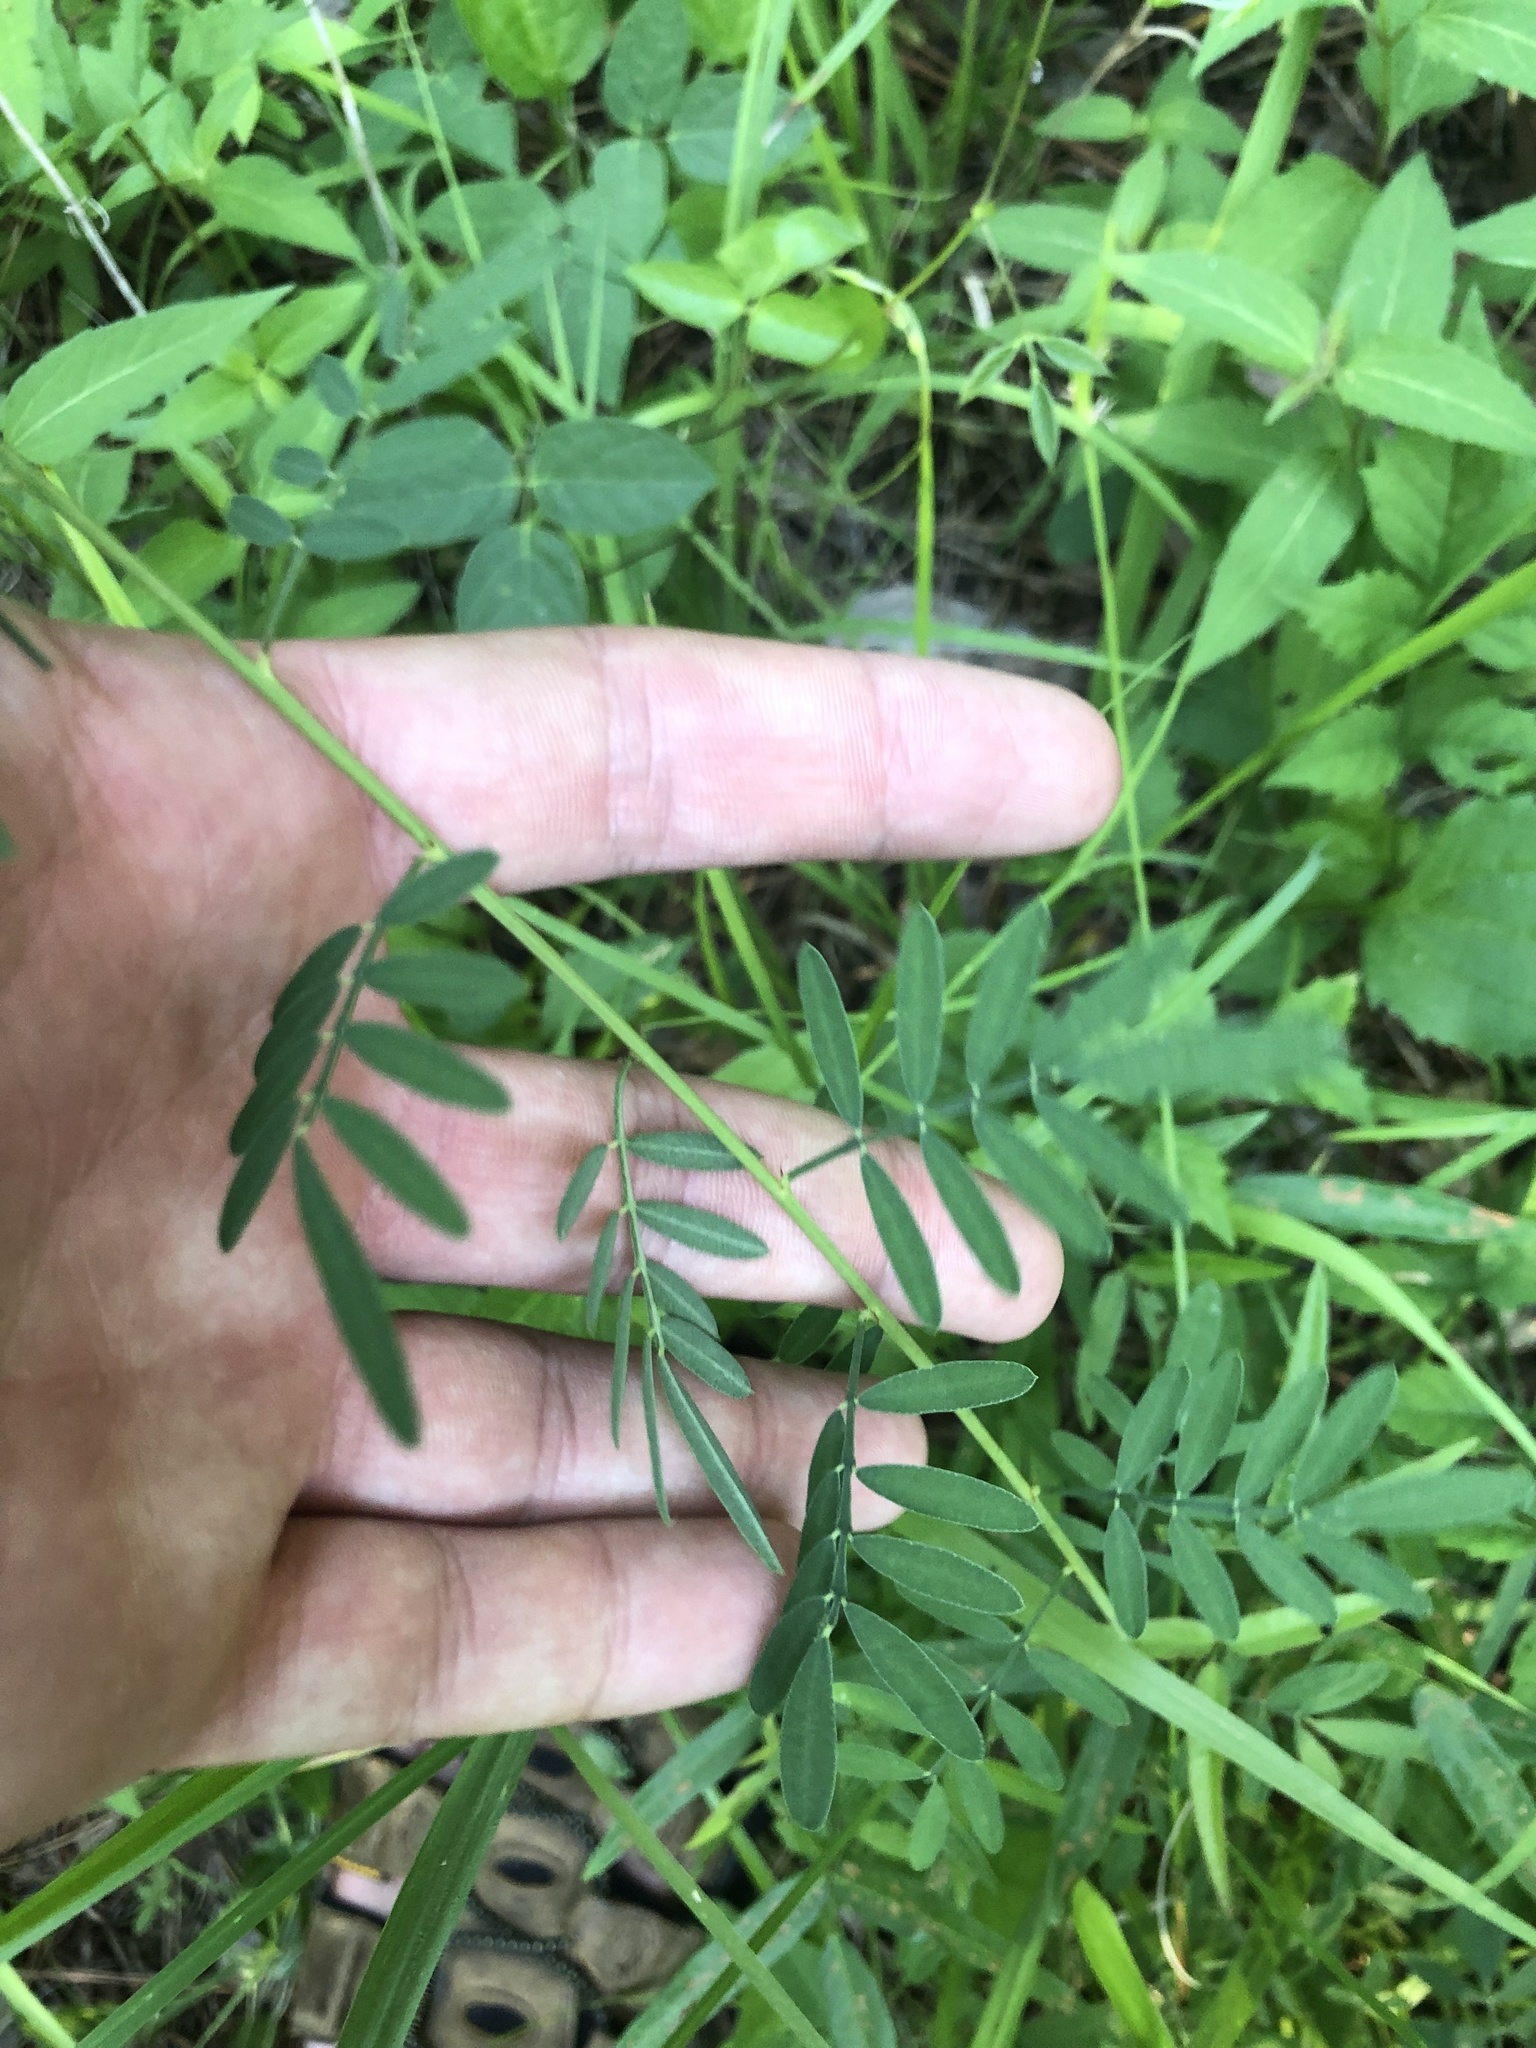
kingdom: Plantae
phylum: Tracheophyta
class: Magnoliopsida
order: Fabales
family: Fabaceae
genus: Dalea
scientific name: Dalea candida
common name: White prairie-clover
